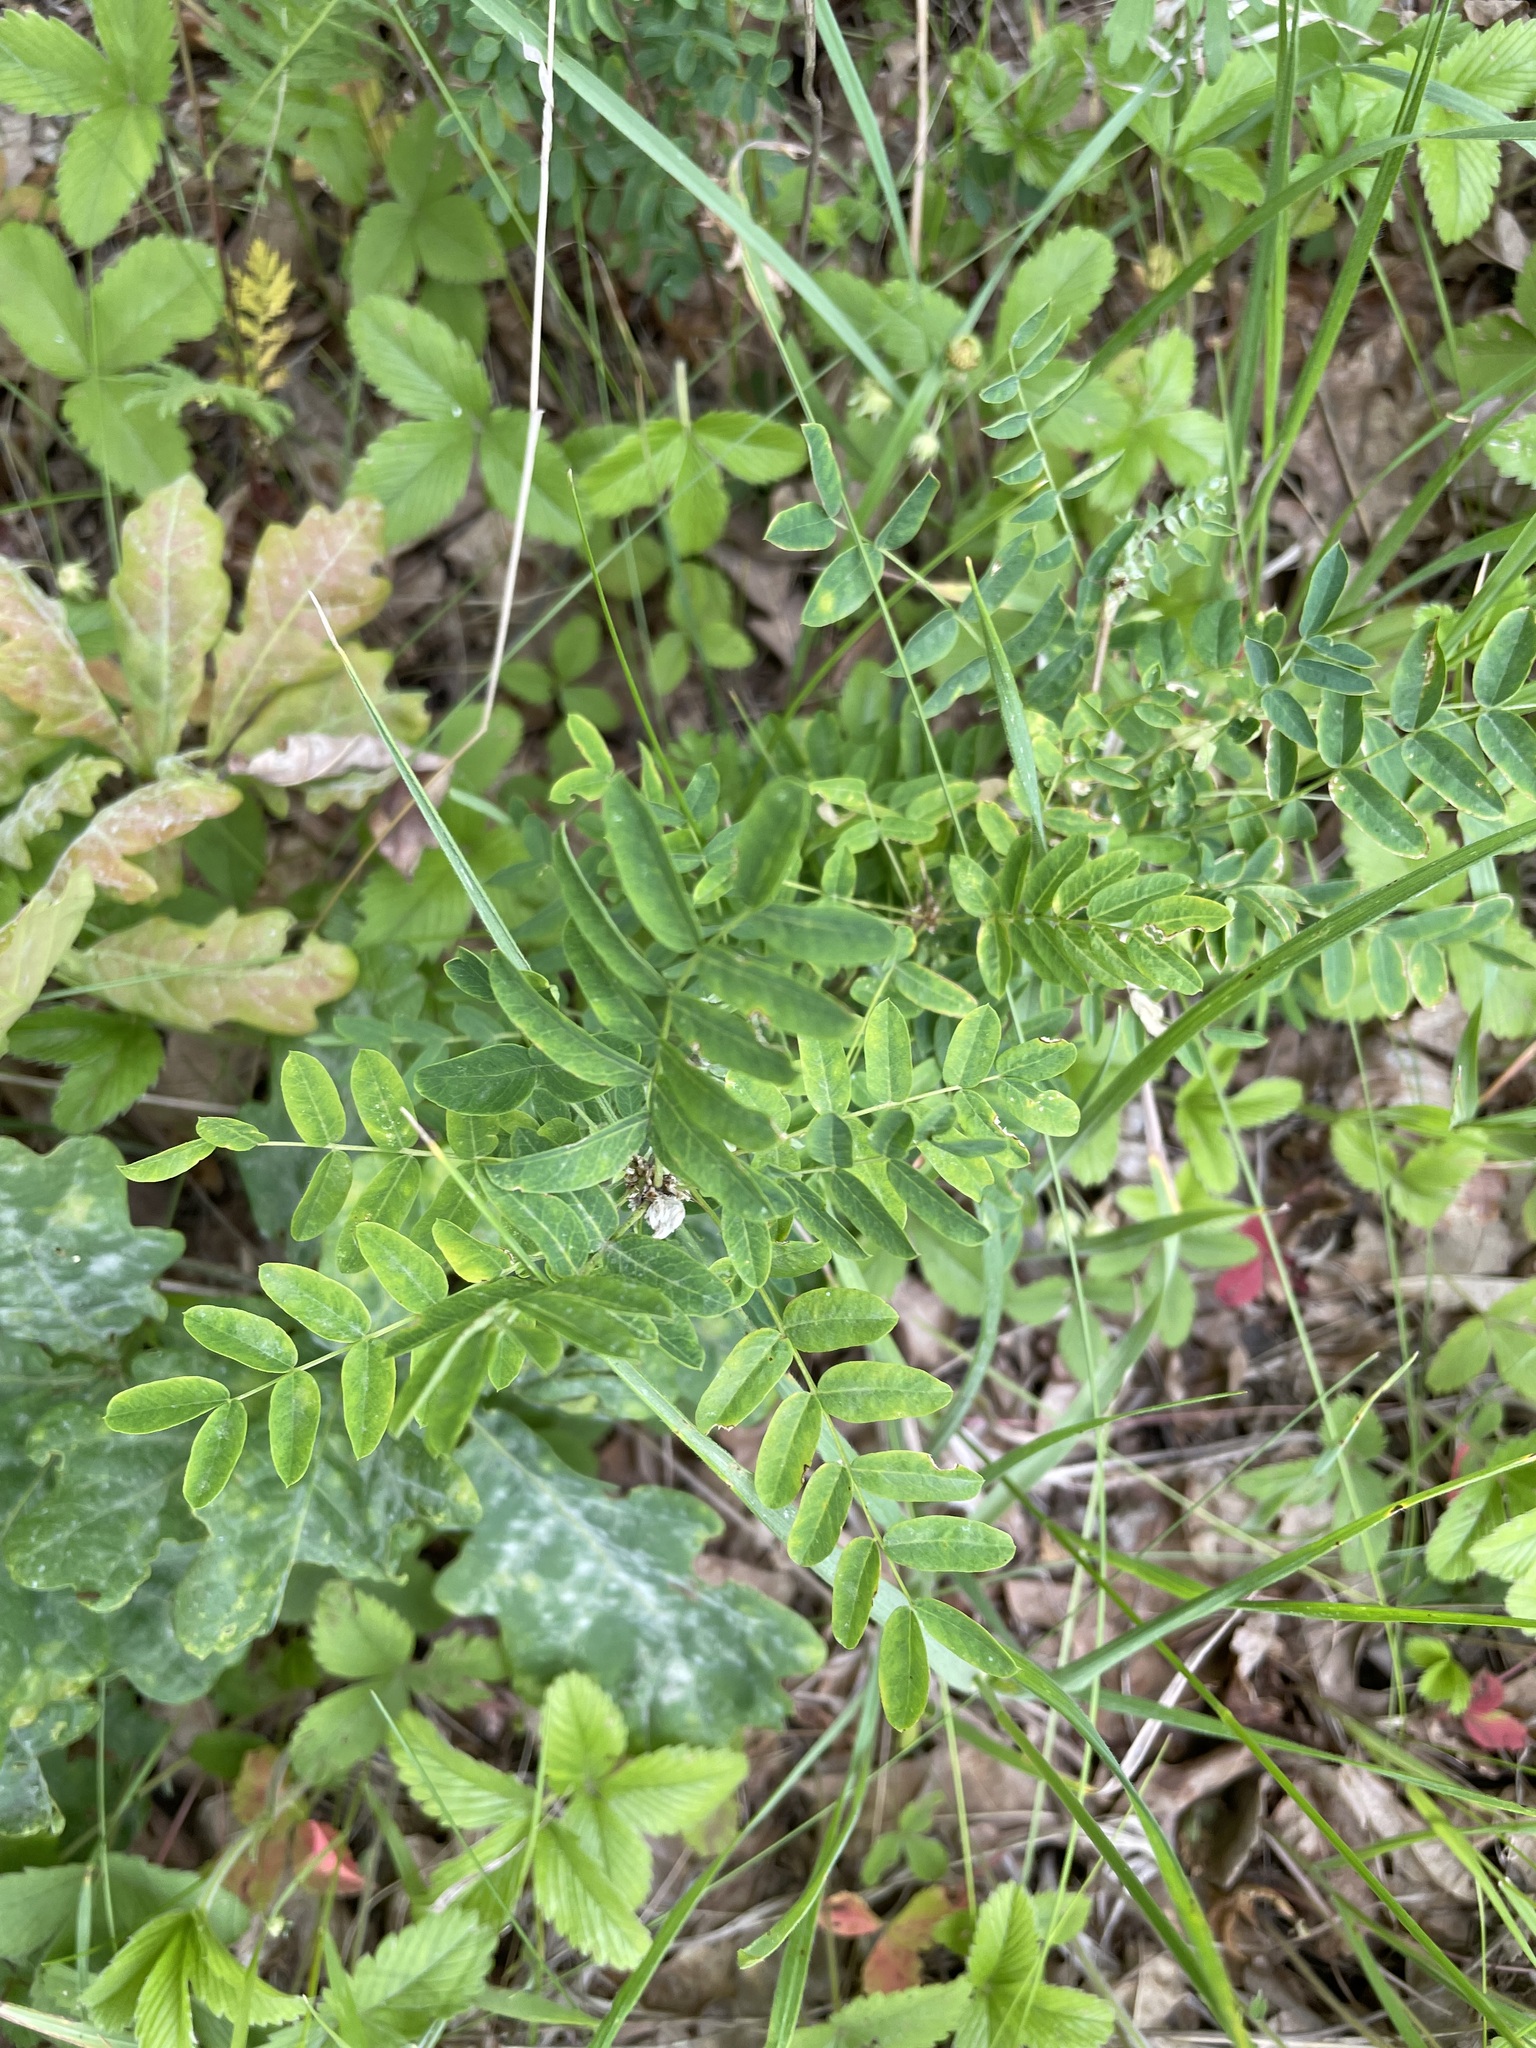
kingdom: Plantae
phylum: Tracheophyta
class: Magnoliopsida
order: Fabales
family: Fabaceae
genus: Caragana
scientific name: Caragana arborescens
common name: Siberian peashrub
